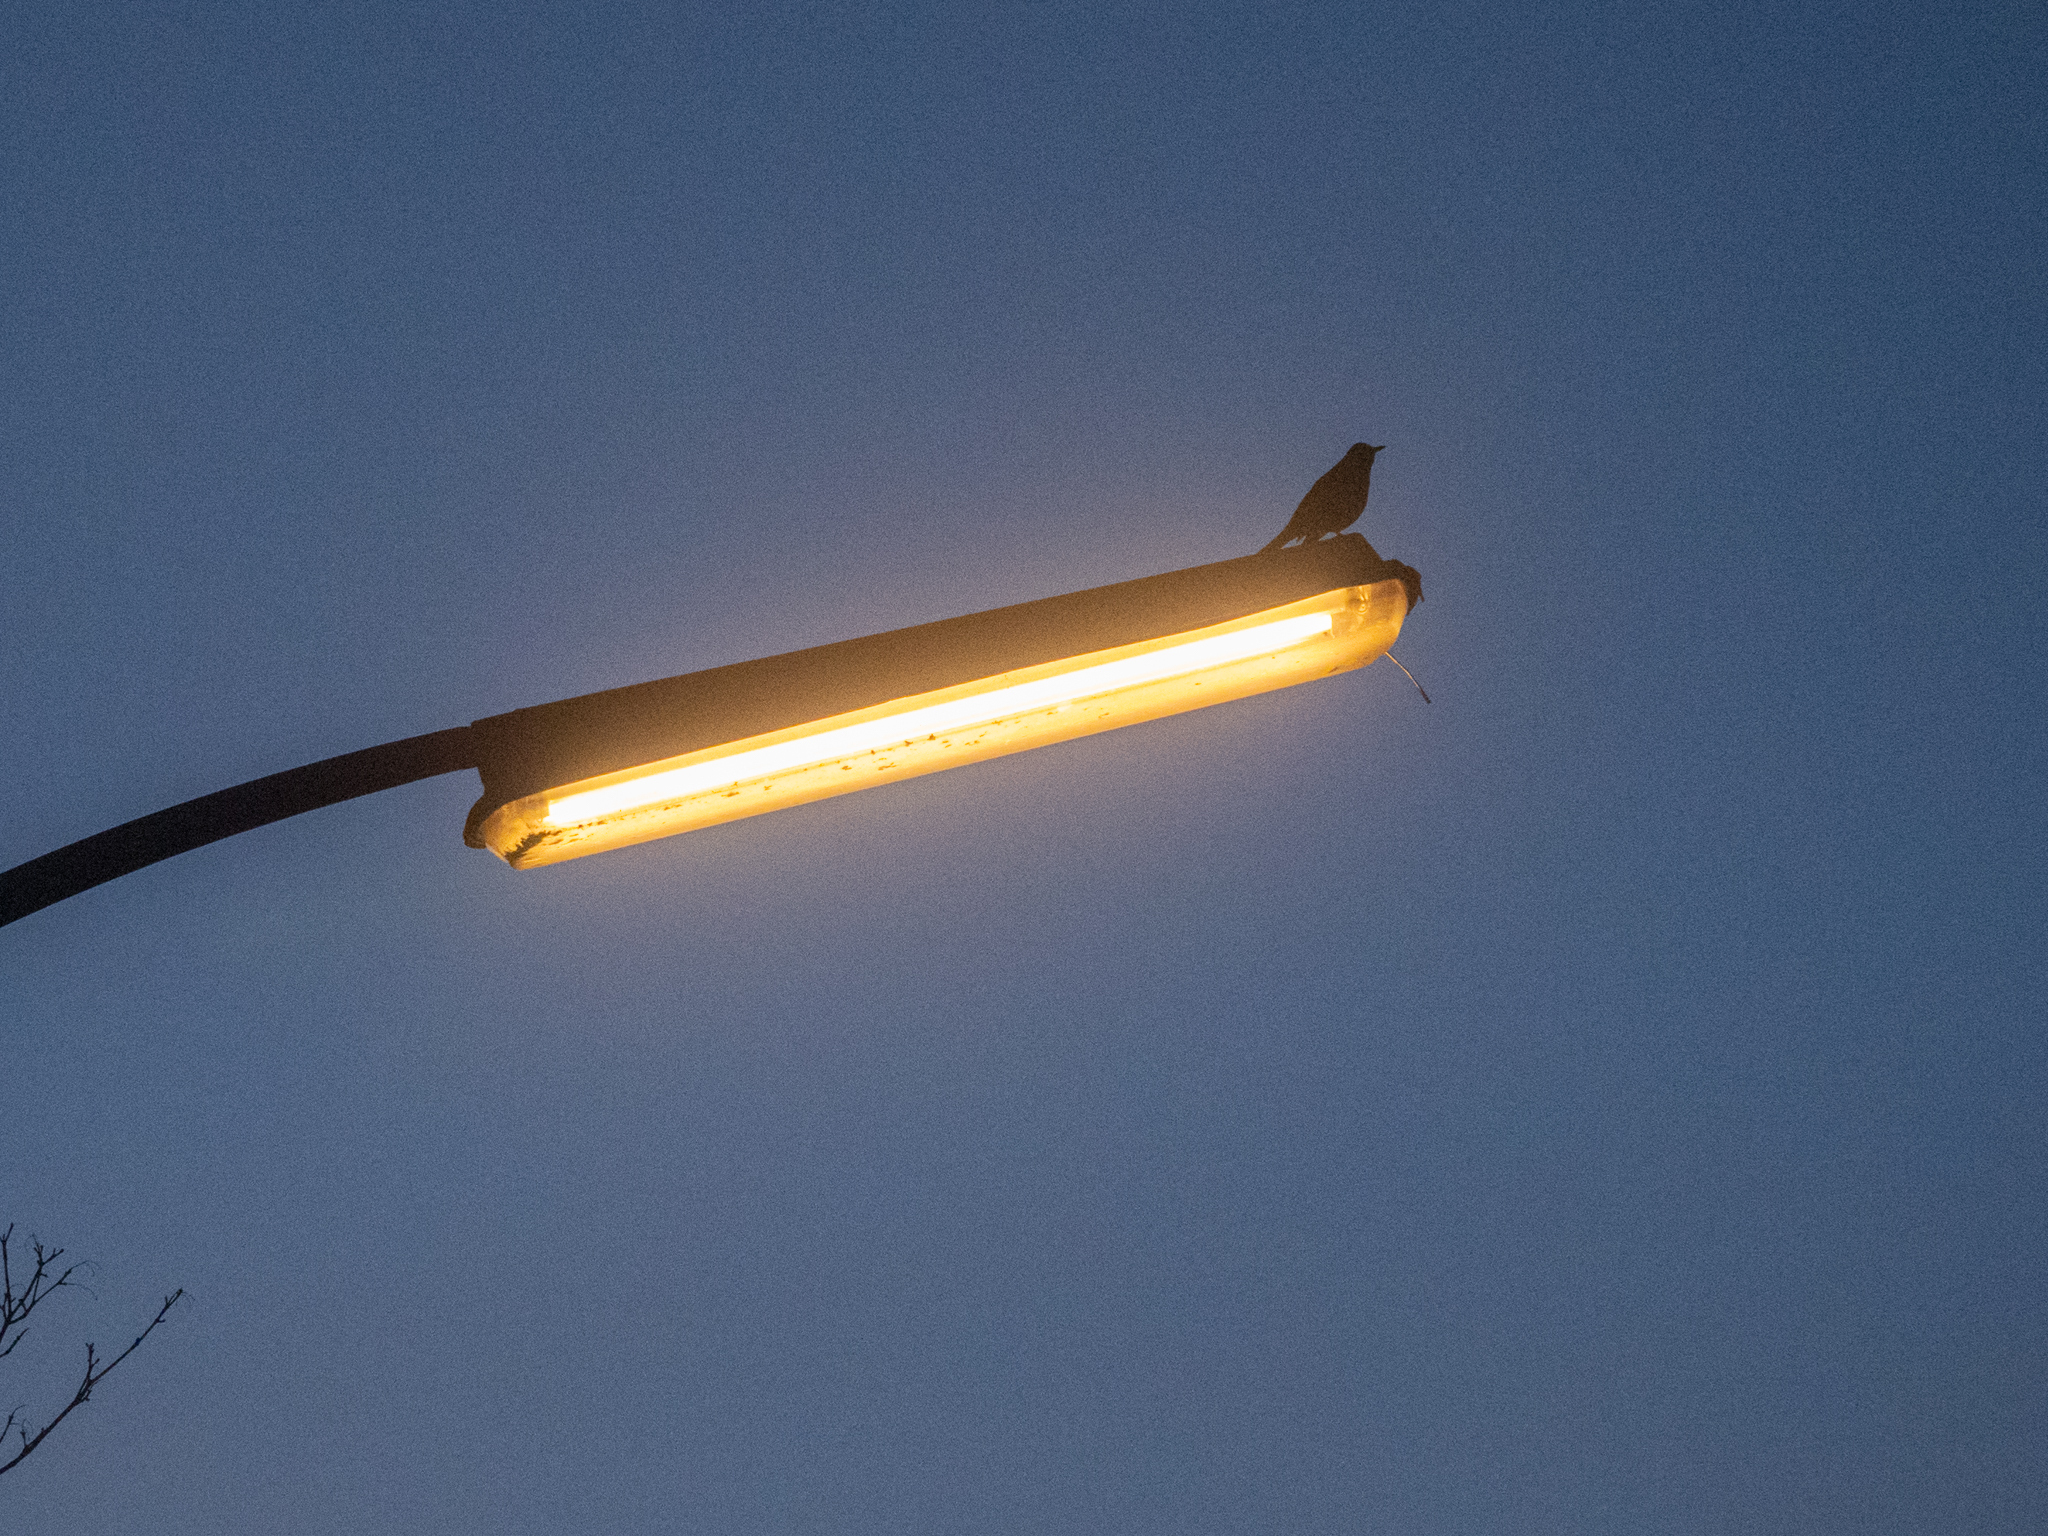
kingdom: Animalia
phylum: Chordata
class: Aves
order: Passeriformes
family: Turdidae
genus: Turdus
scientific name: Turdus merula
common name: Common blackbird
